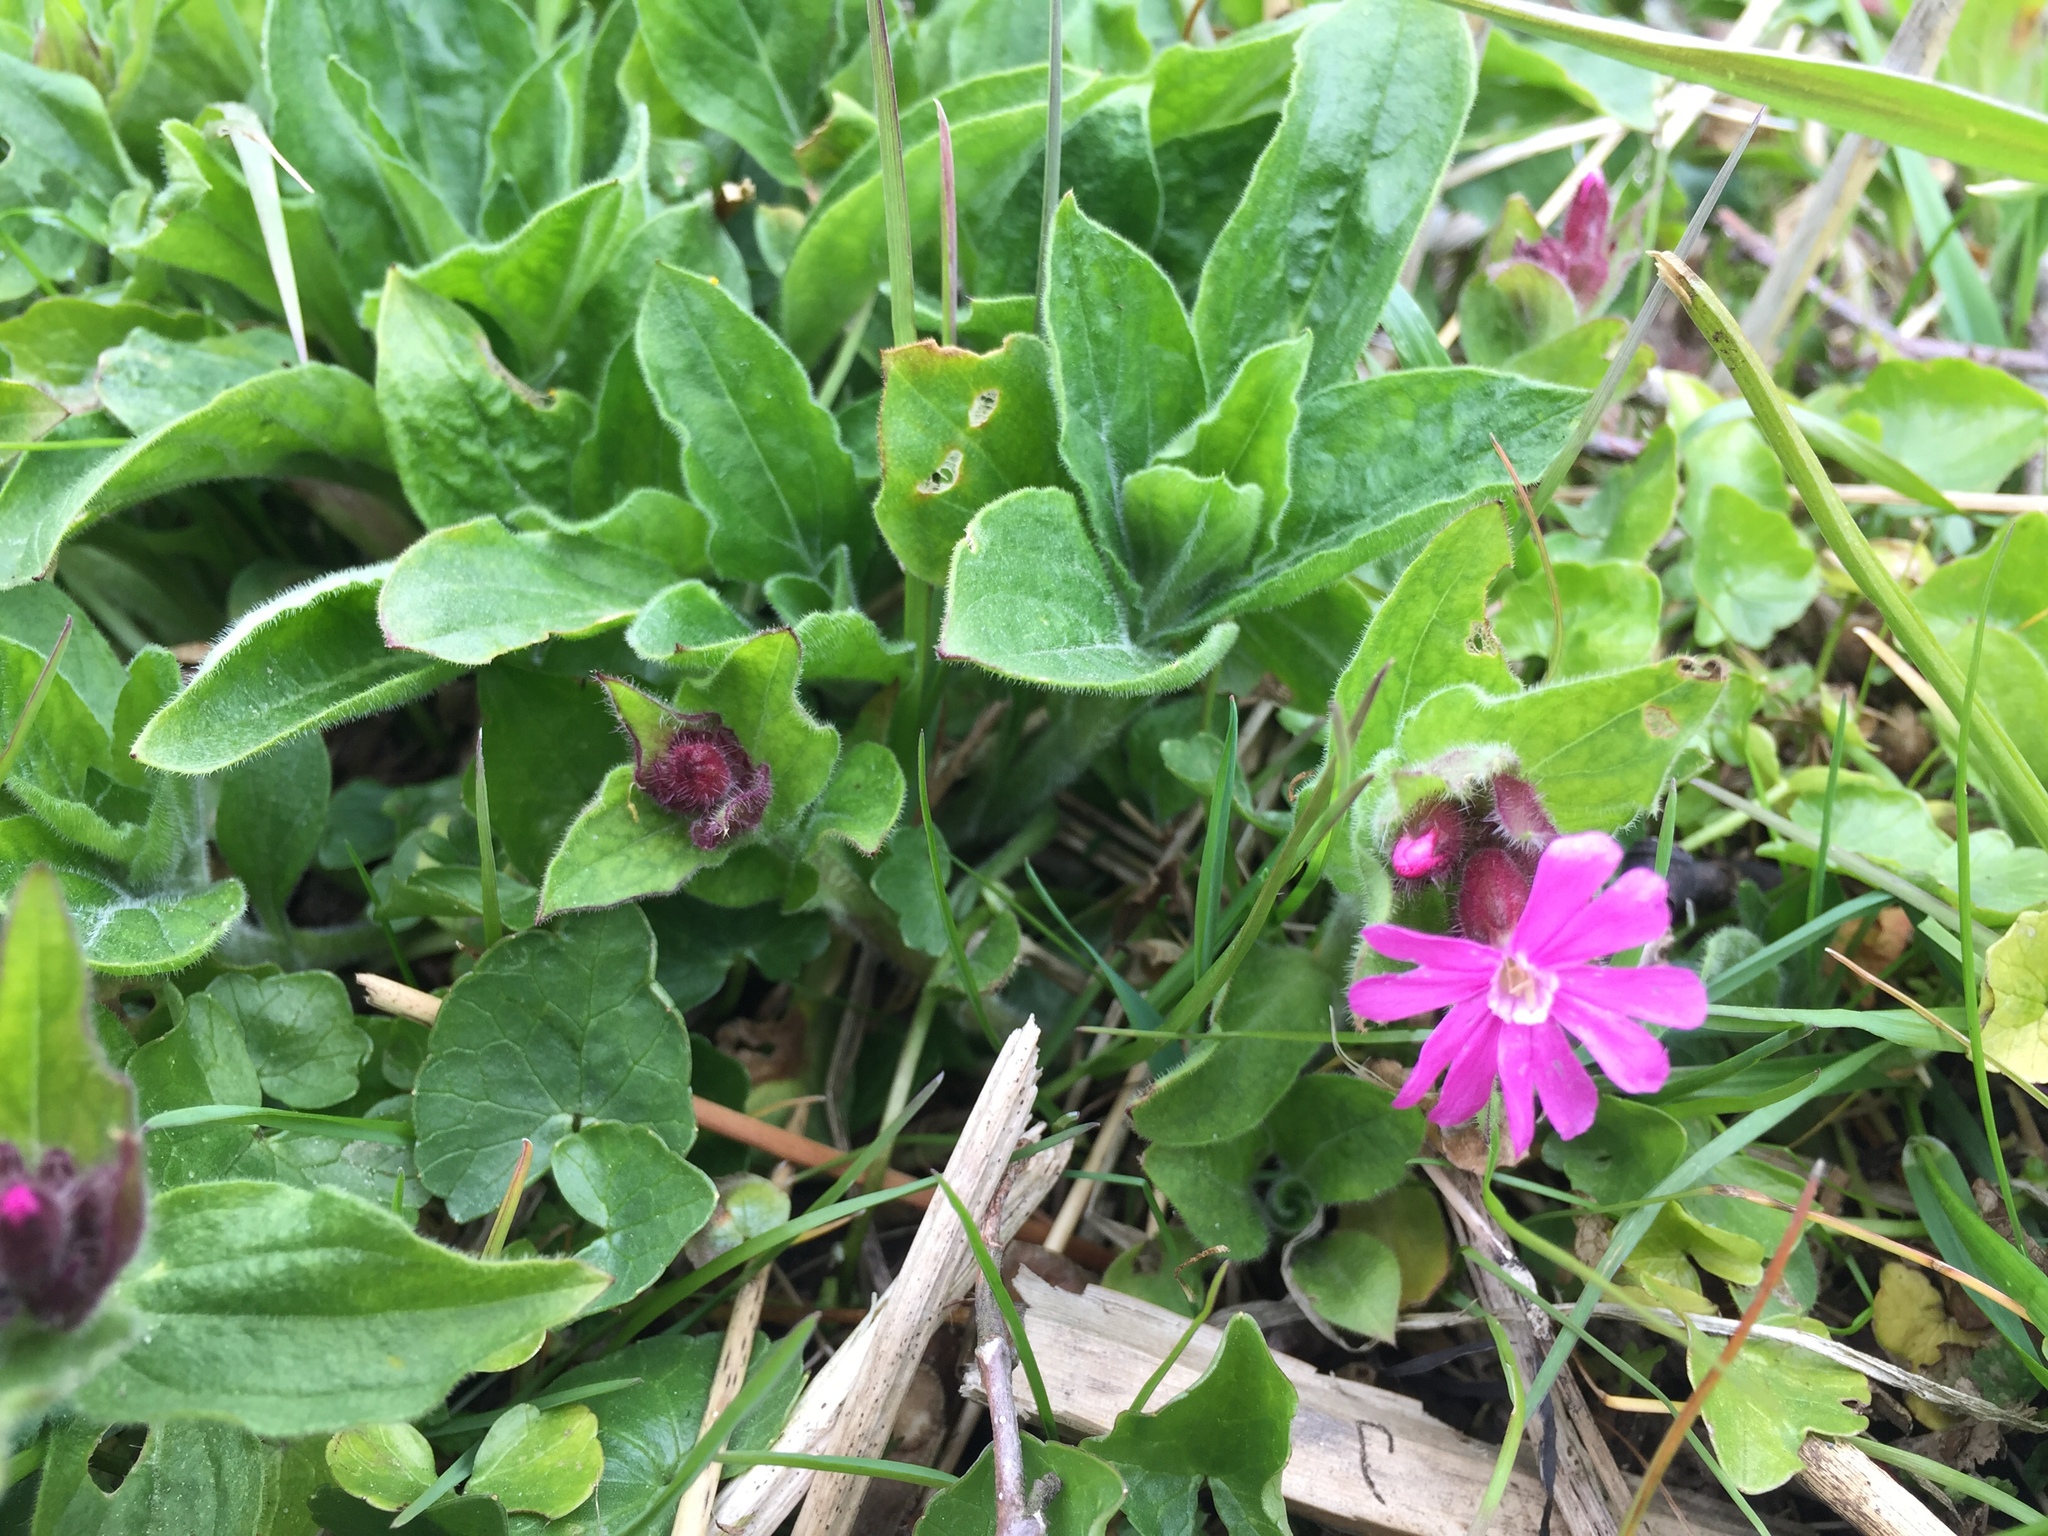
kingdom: Plantae
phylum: Tracheophyta
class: Magnoliopsida
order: Caryophyllales
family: Caryophyllaceae
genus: Silene
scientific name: Silene dioica
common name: Red campion
